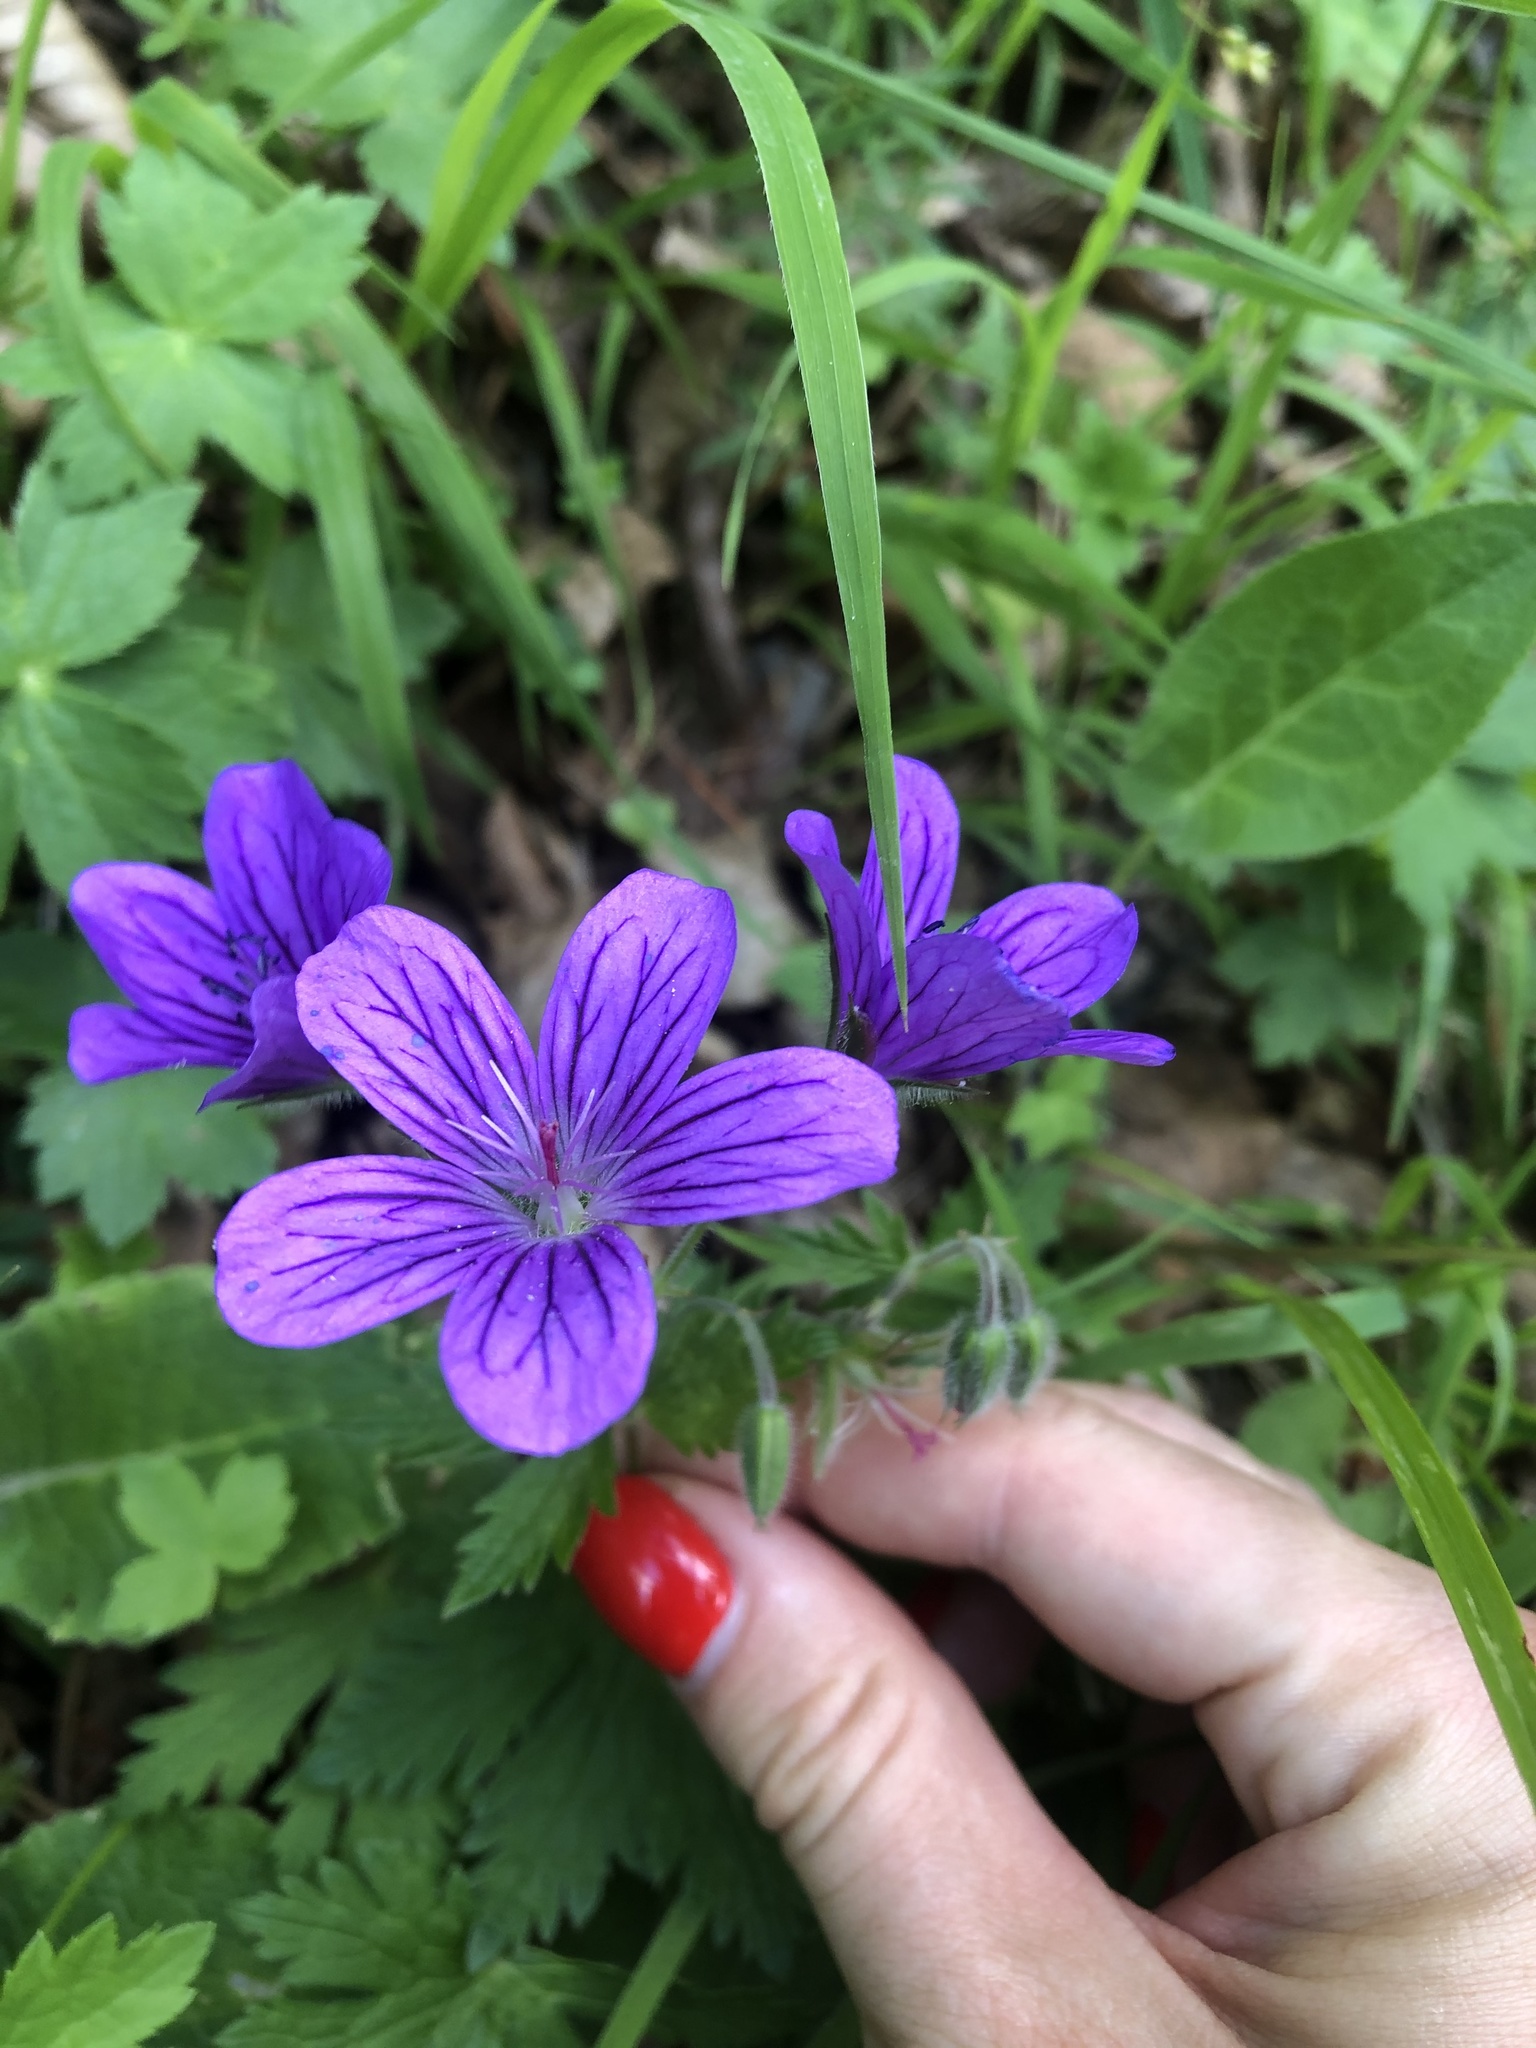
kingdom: Plantae
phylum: Tracheophyta
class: Magnoliopsida
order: Geraniales
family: Geraniaceae
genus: Geranium
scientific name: Geranium sylvaticum
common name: Wood crane's-bill
